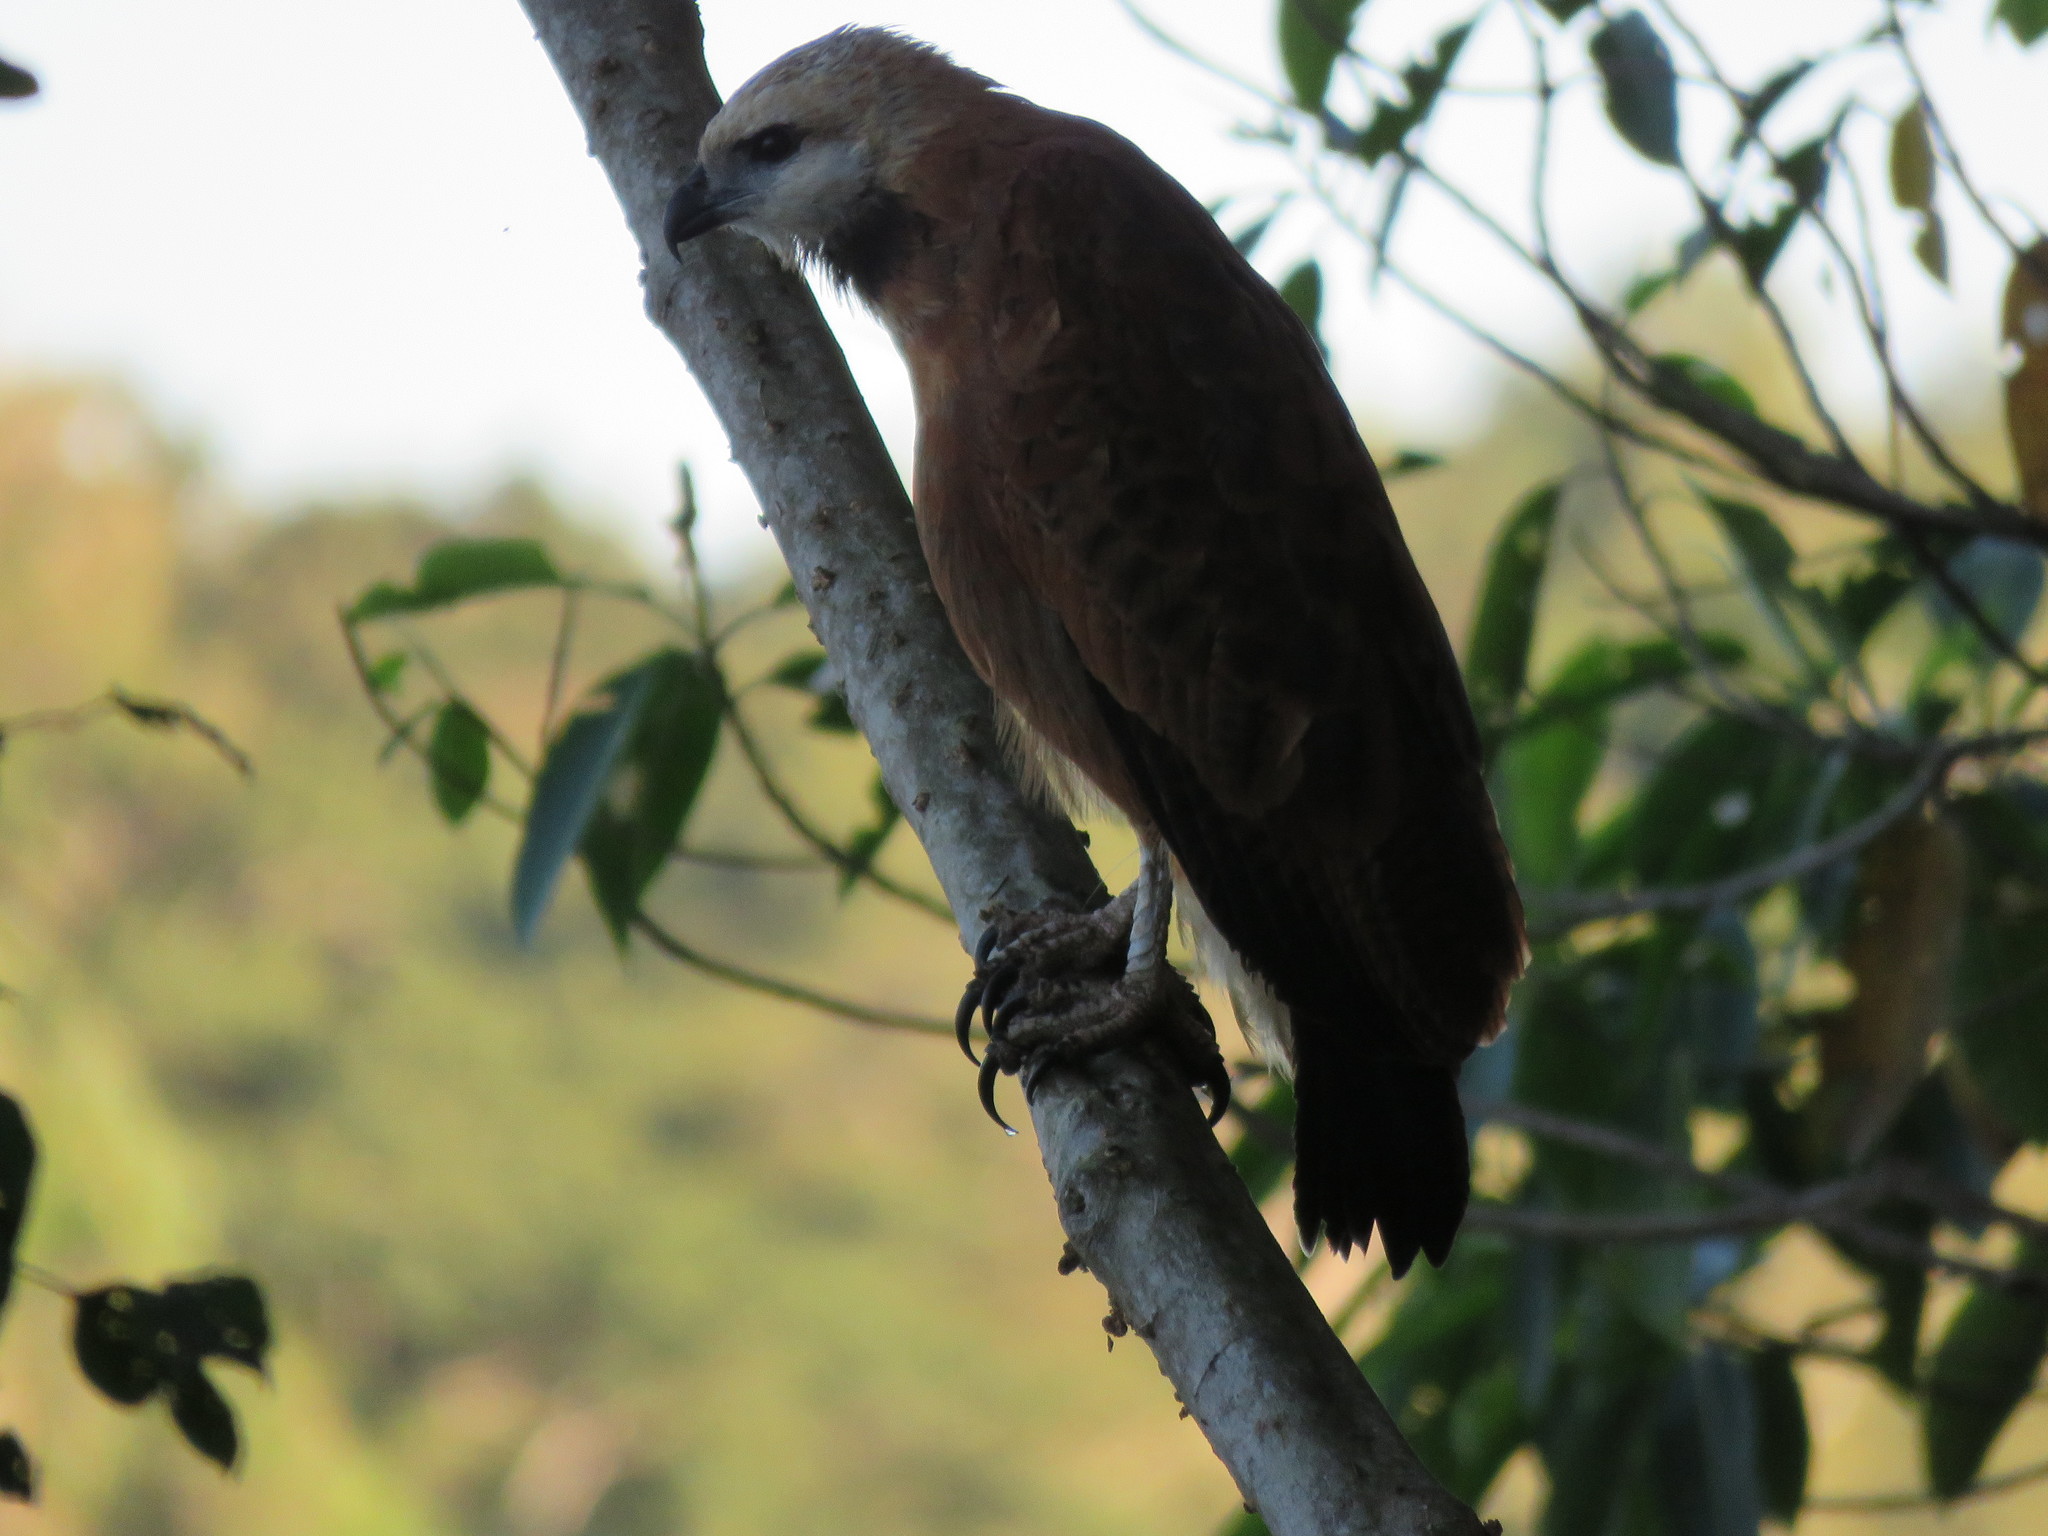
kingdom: Animalia
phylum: Chordata
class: Aves
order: Accipitriformes
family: Accipitridae
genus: Busarellus
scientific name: Busarellus nigricollis
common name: Black-collared hawk
